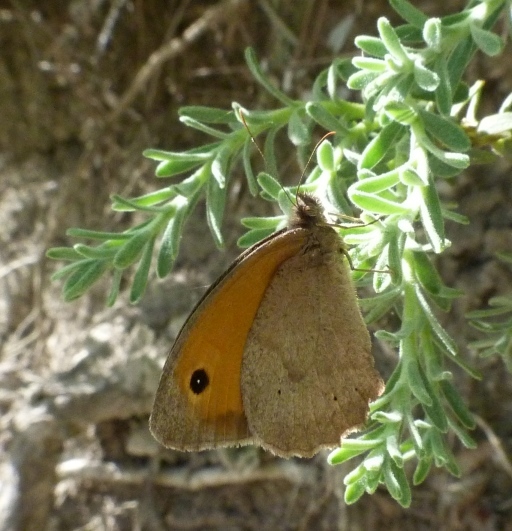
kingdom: Animalia
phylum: Arthropoda
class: Insecta
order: Lepidoptera
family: Nymphalidae
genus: Maniola
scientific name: Maniola jurtina
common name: Meadow brown
